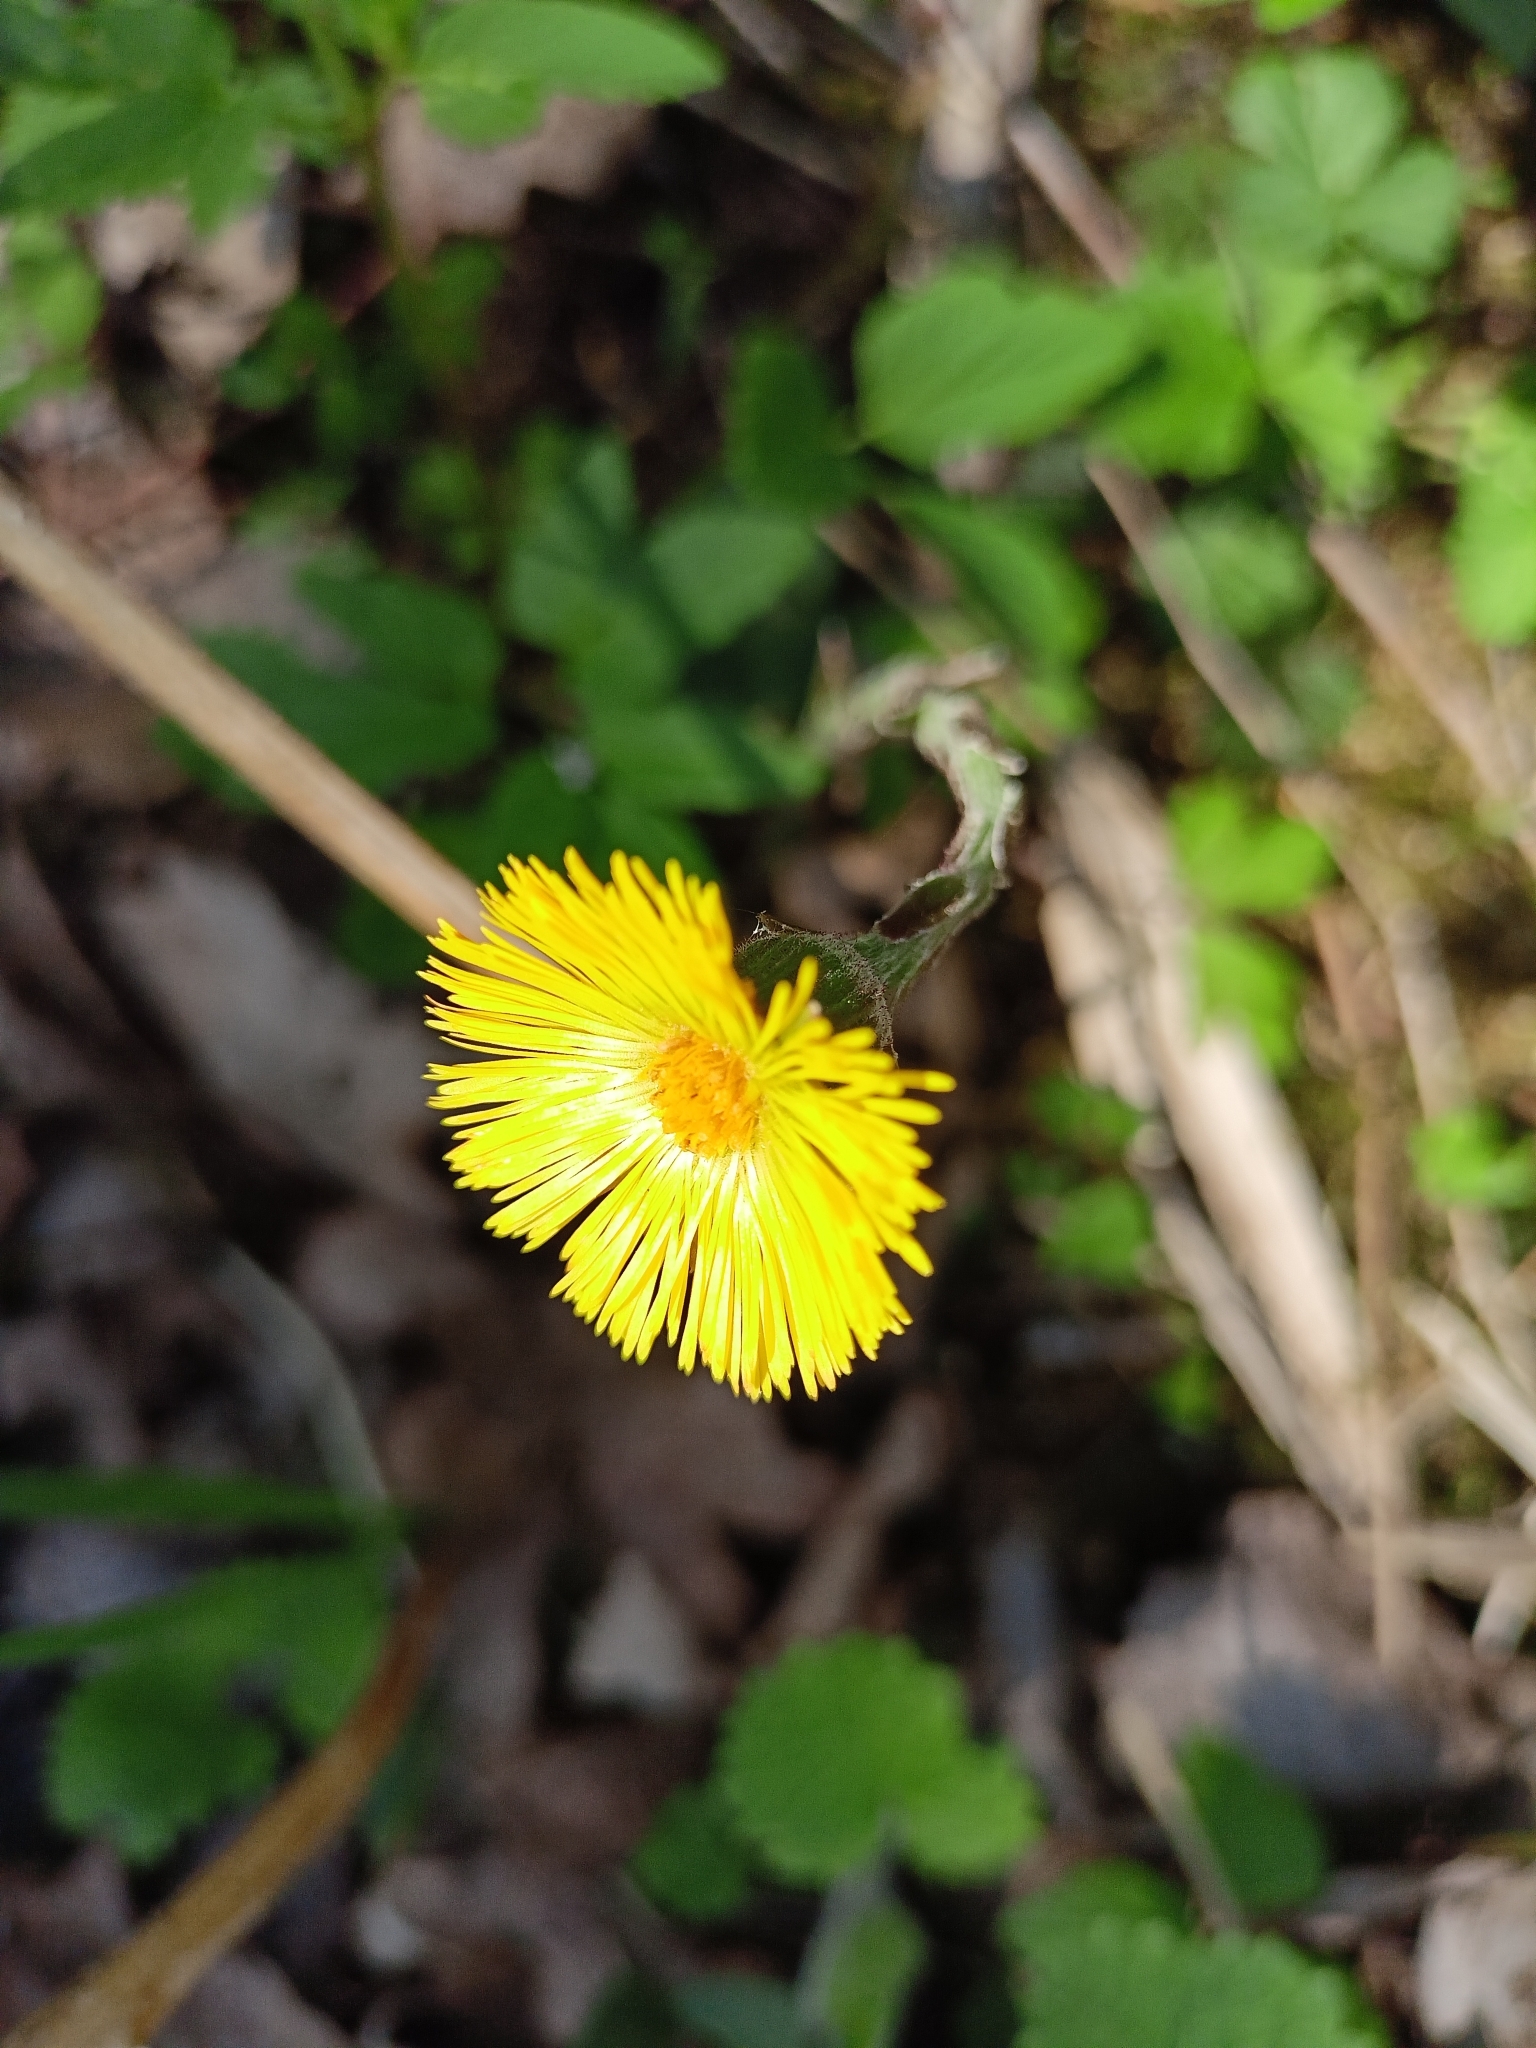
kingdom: Plantae
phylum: Tracheophyta
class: Magnoliopsida
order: Asterales
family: Asteraceae
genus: Tussilago
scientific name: Tussilago farfara
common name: Coltsfoot
